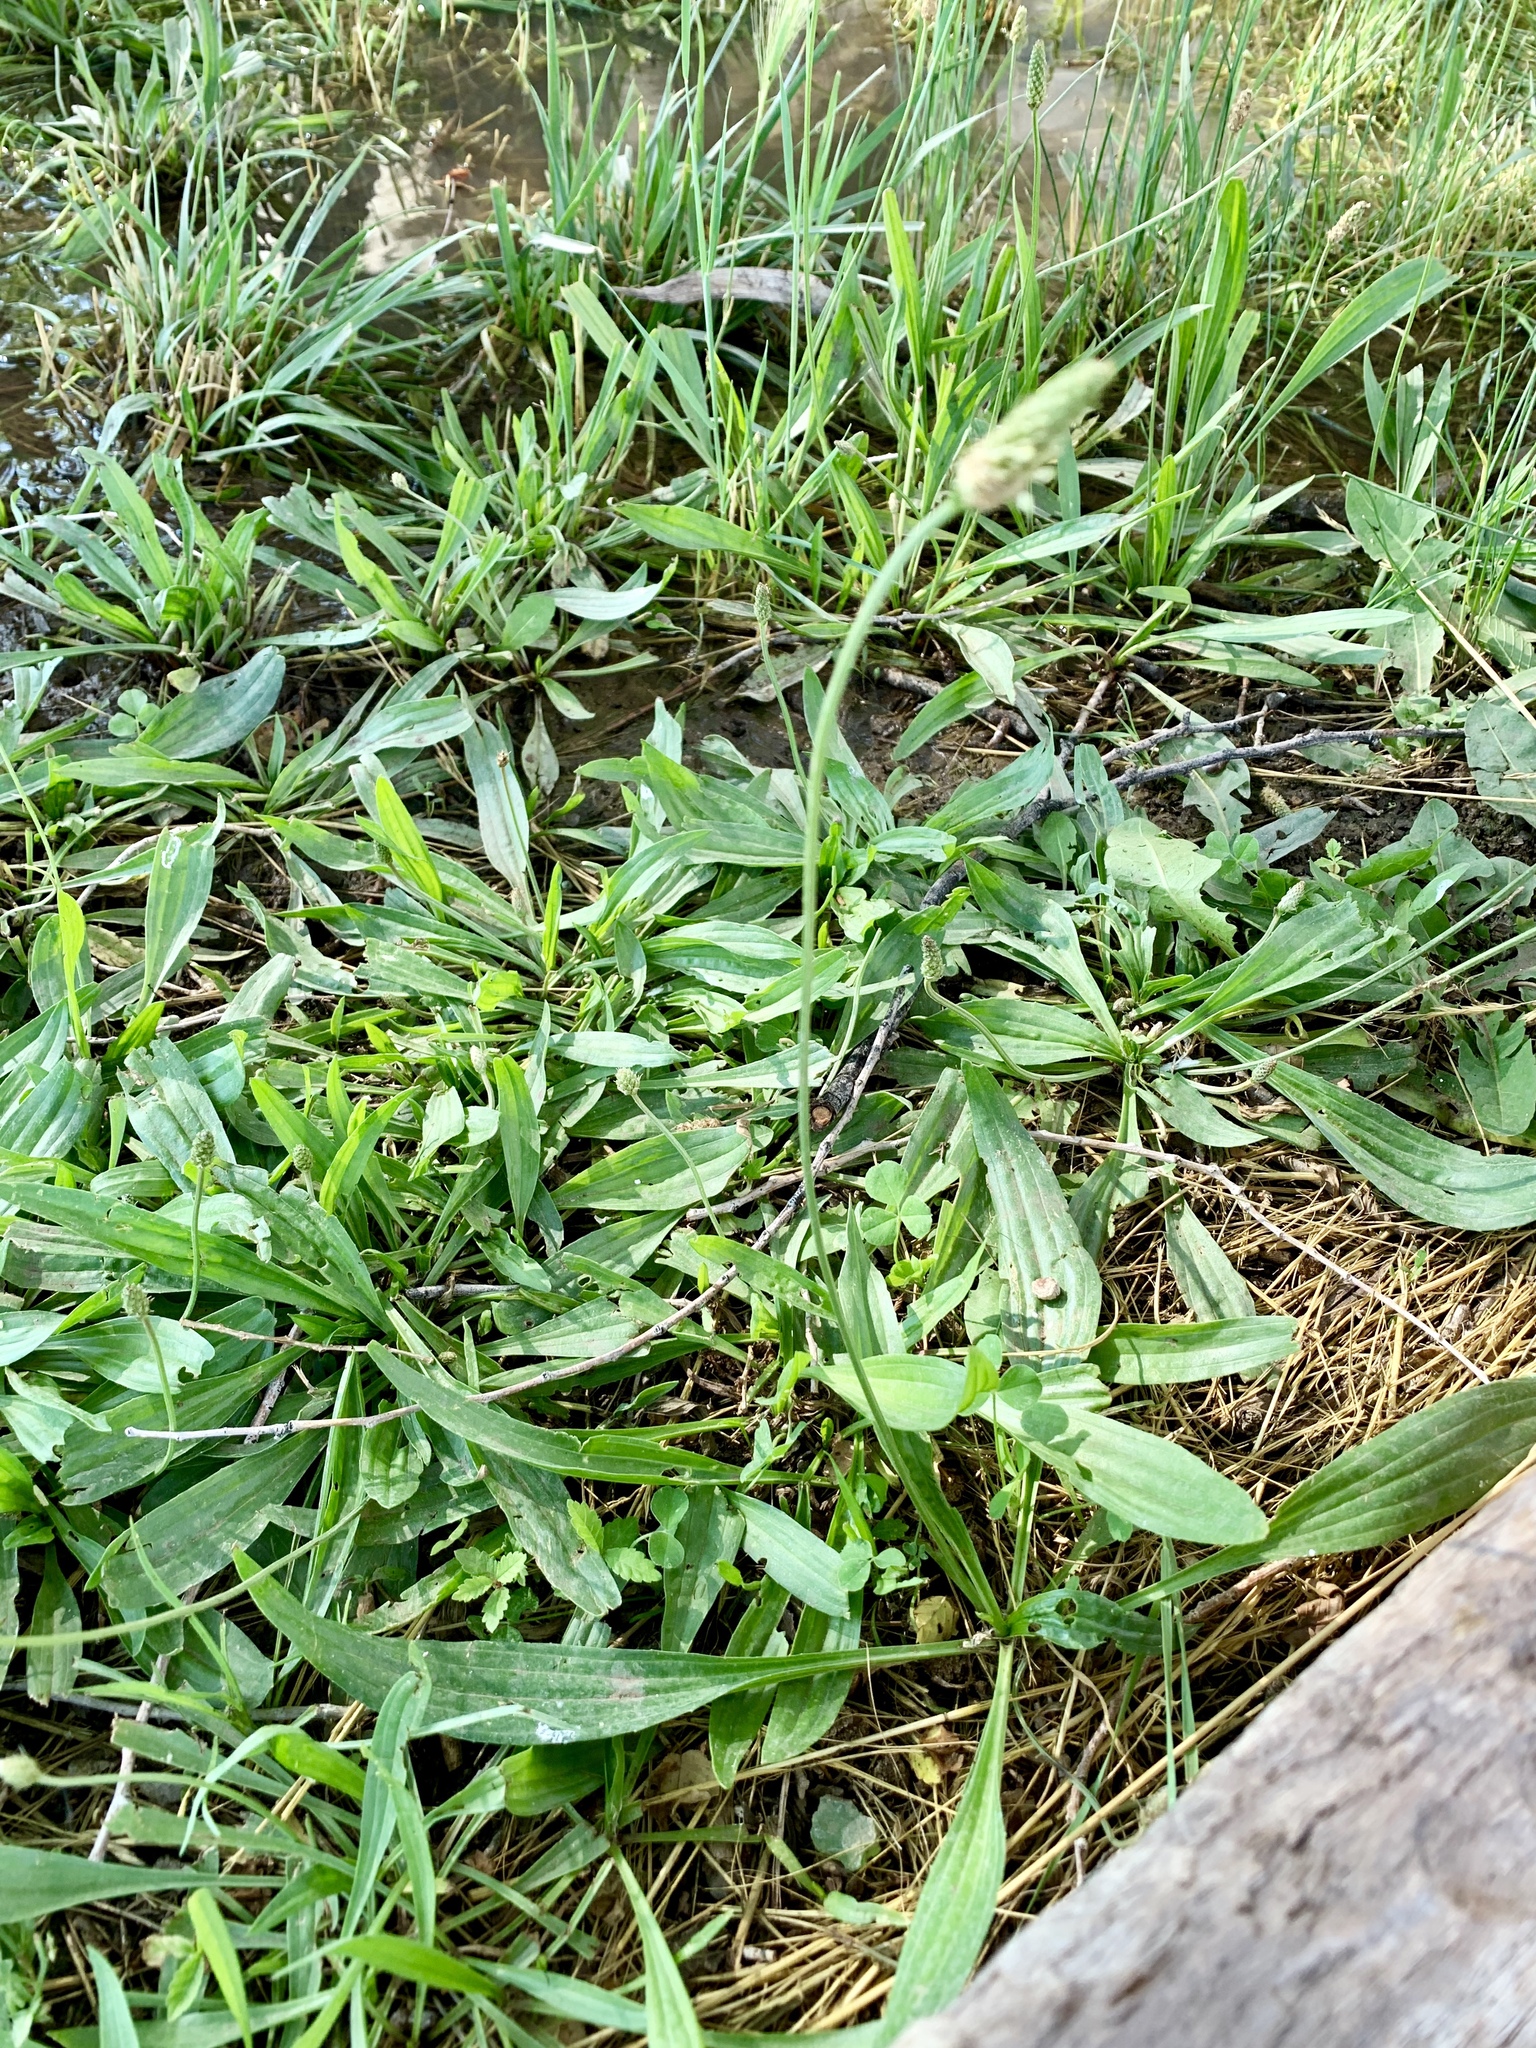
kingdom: Plantae
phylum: Tracheophyta
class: Magnoliopsida
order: Lamiales
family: Plantaginaceae
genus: Plantago
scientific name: Plantago lanceolata
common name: Ribwort plantain
